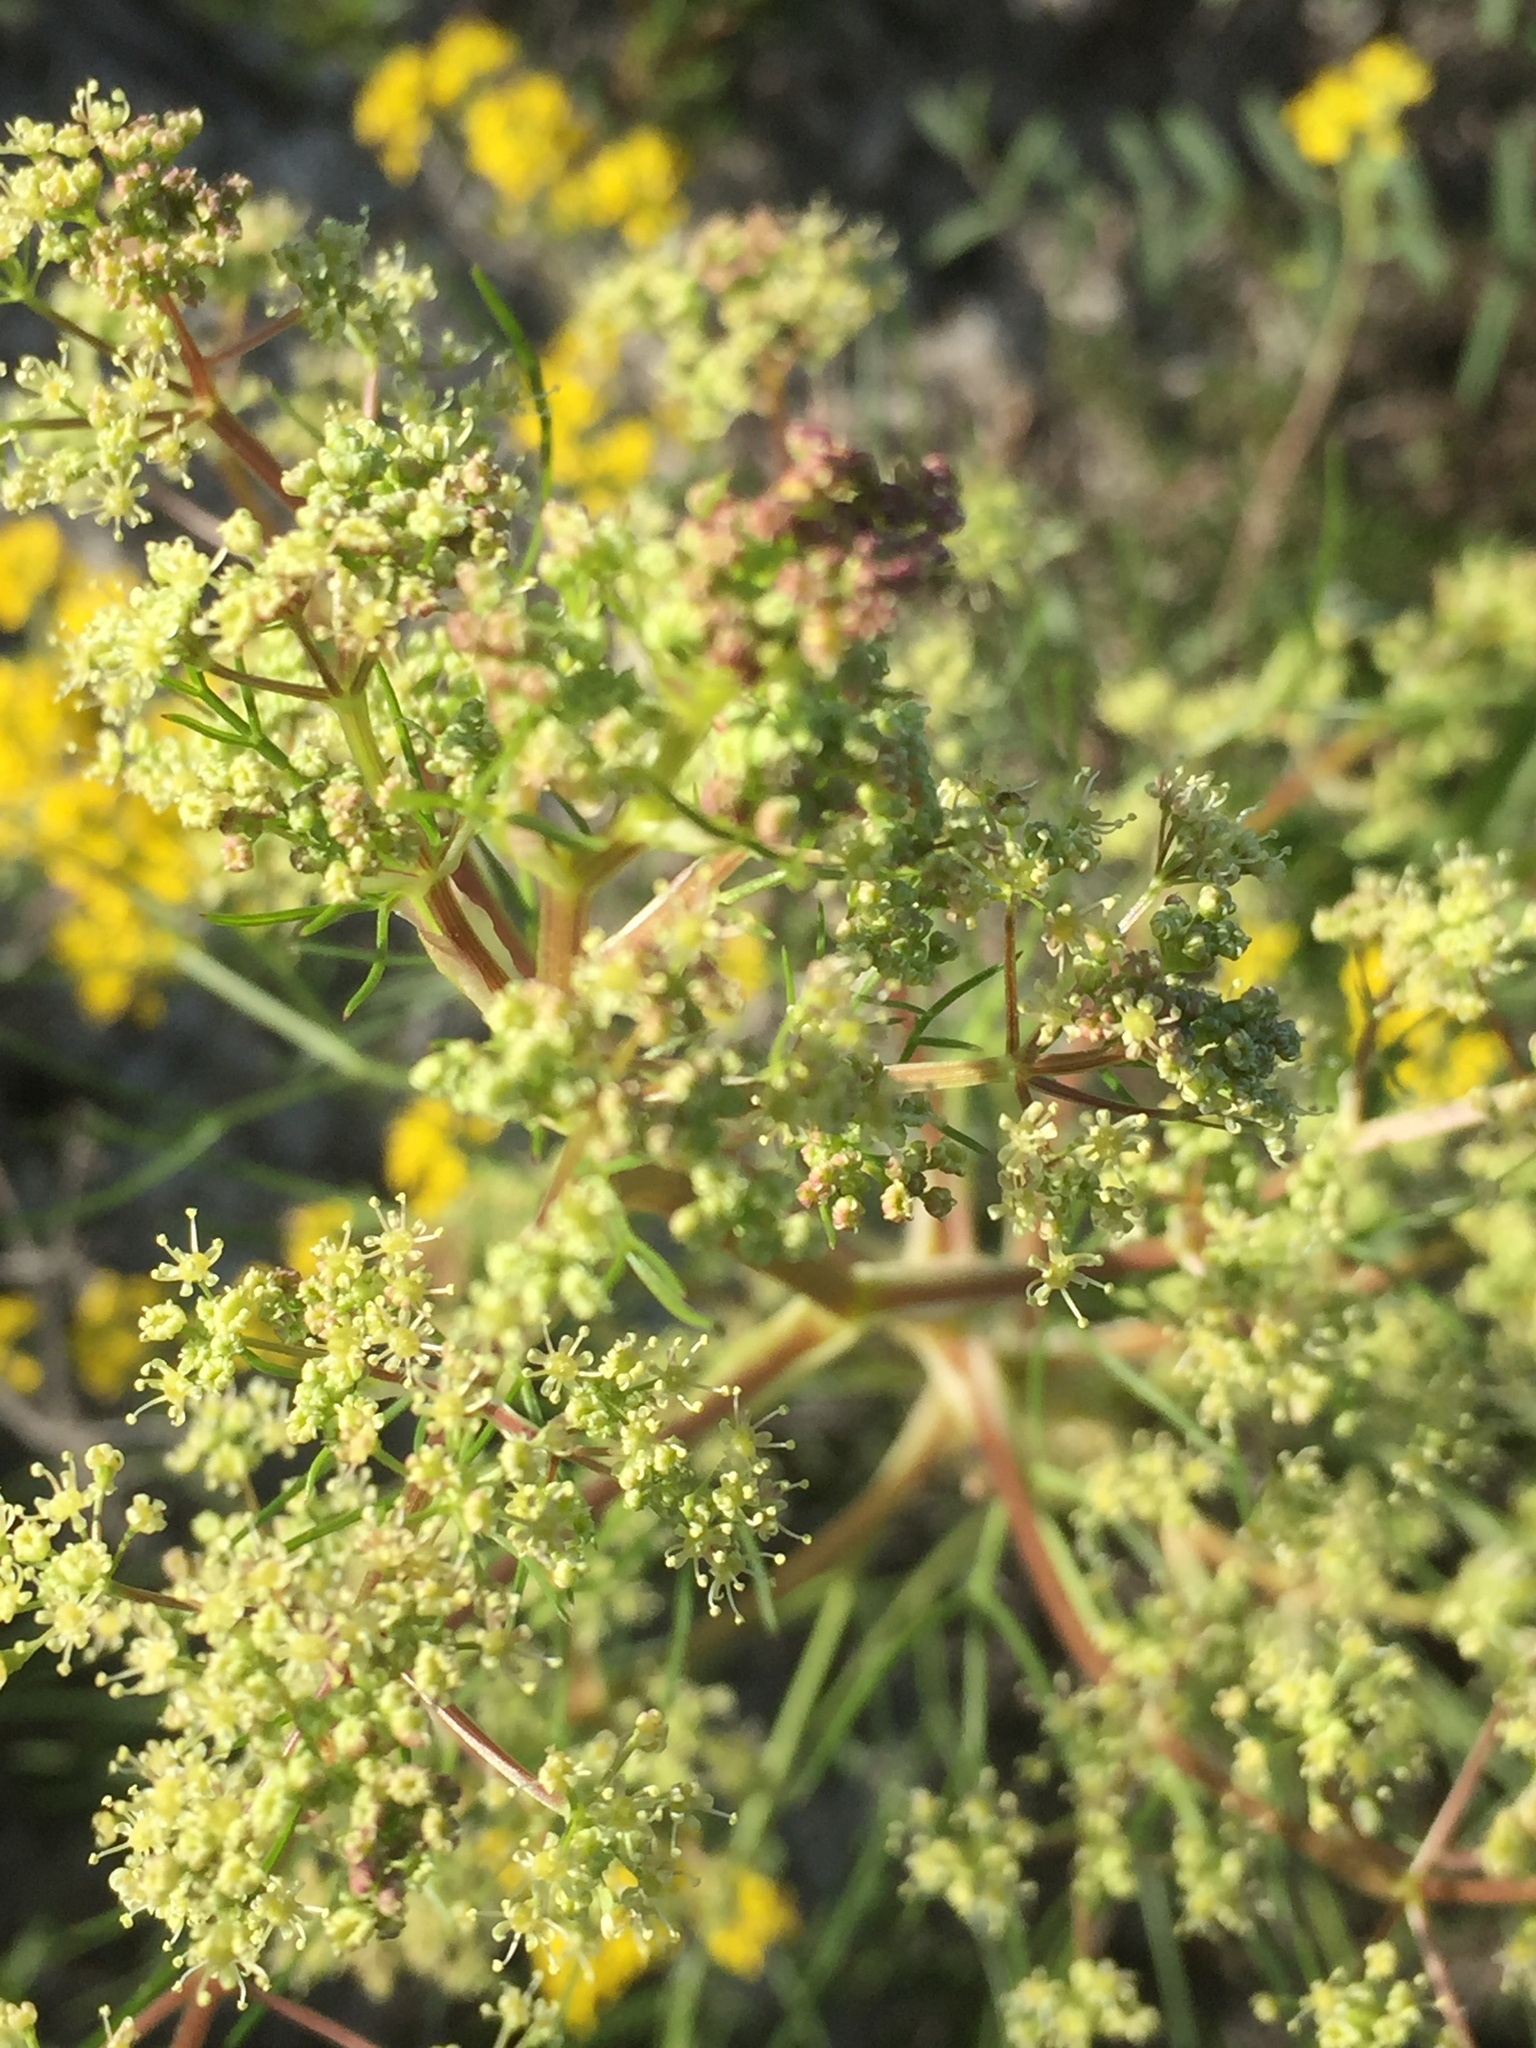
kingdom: Plantae
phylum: Tracheophyta
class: Magnoliopsida
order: Apiales
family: Apiaceae
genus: Trinia
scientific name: Trinia multicaulis
